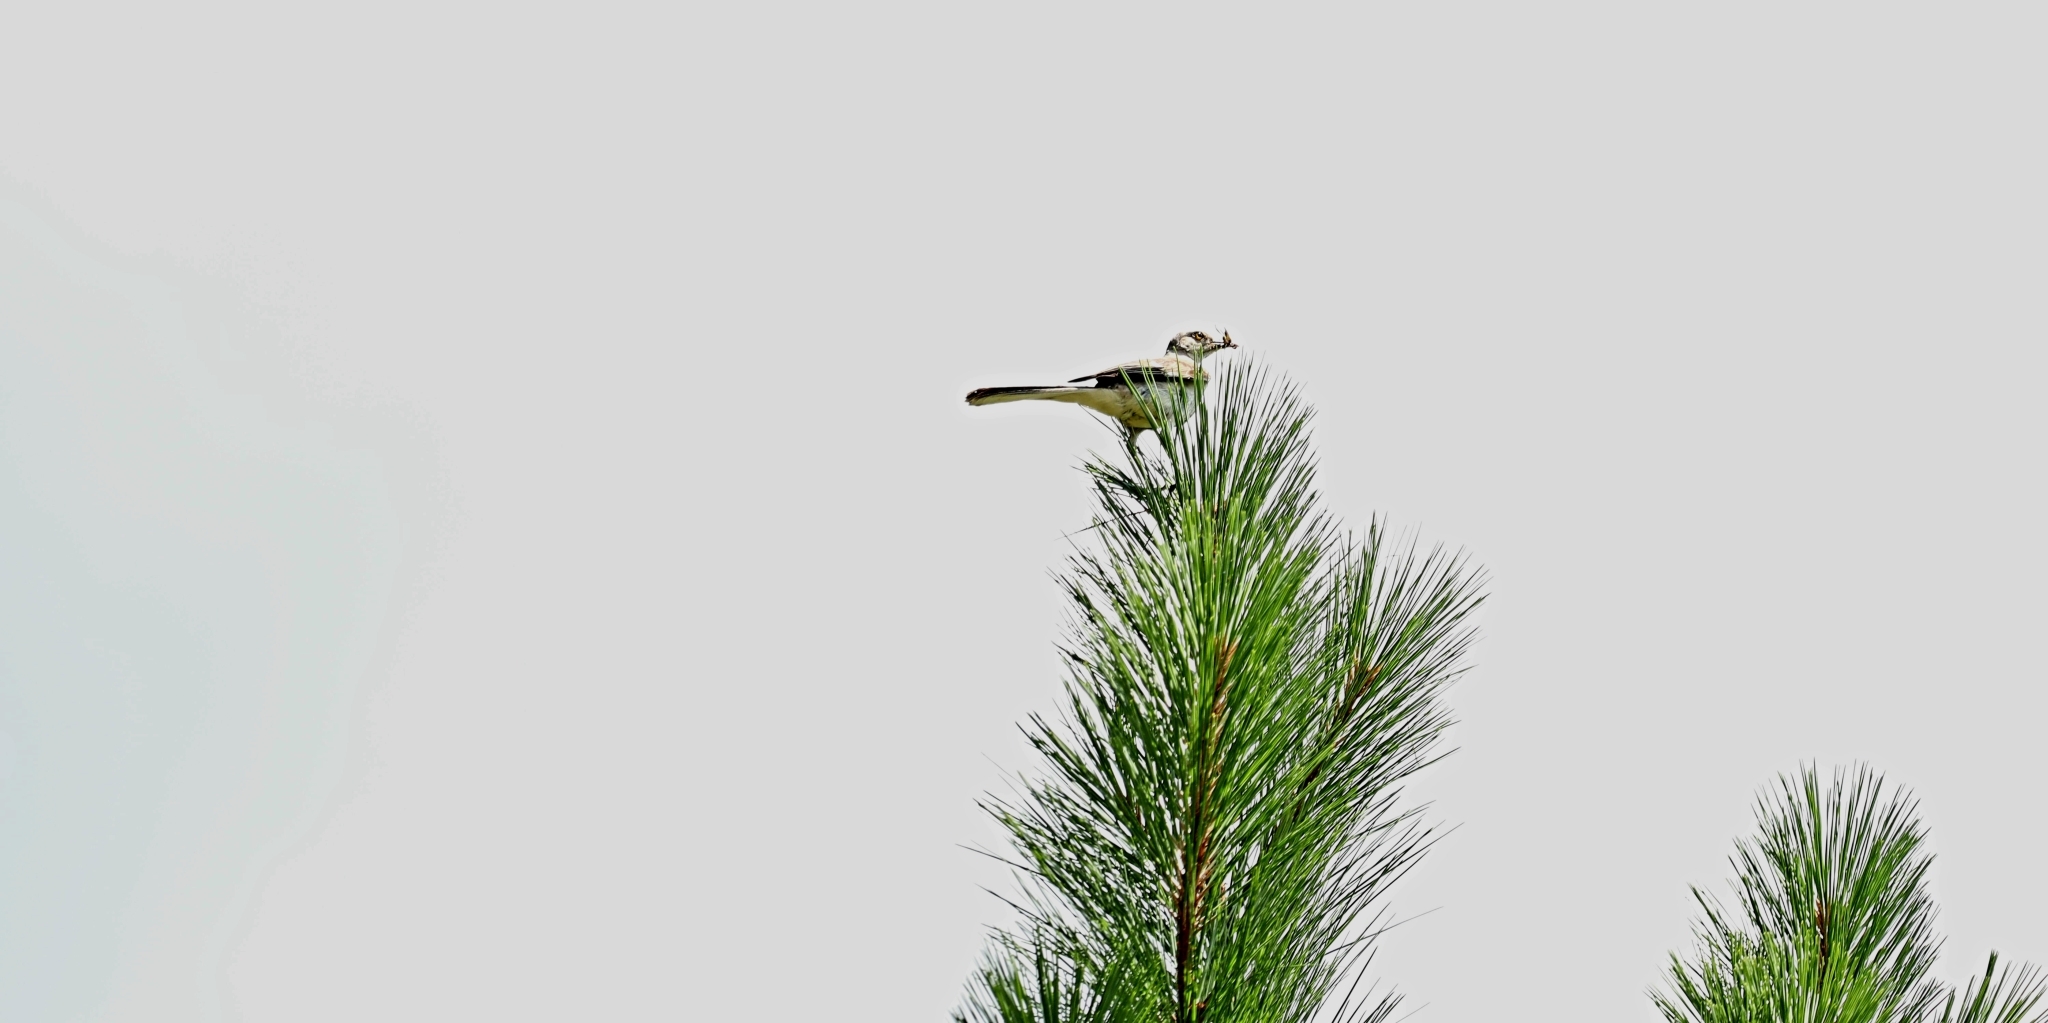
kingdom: Animalia
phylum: Chordata
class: Aves
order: Passeriformes
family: Mimidae
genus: Mimus
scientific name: Mimus polyglottos
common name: Northern mockingbird
